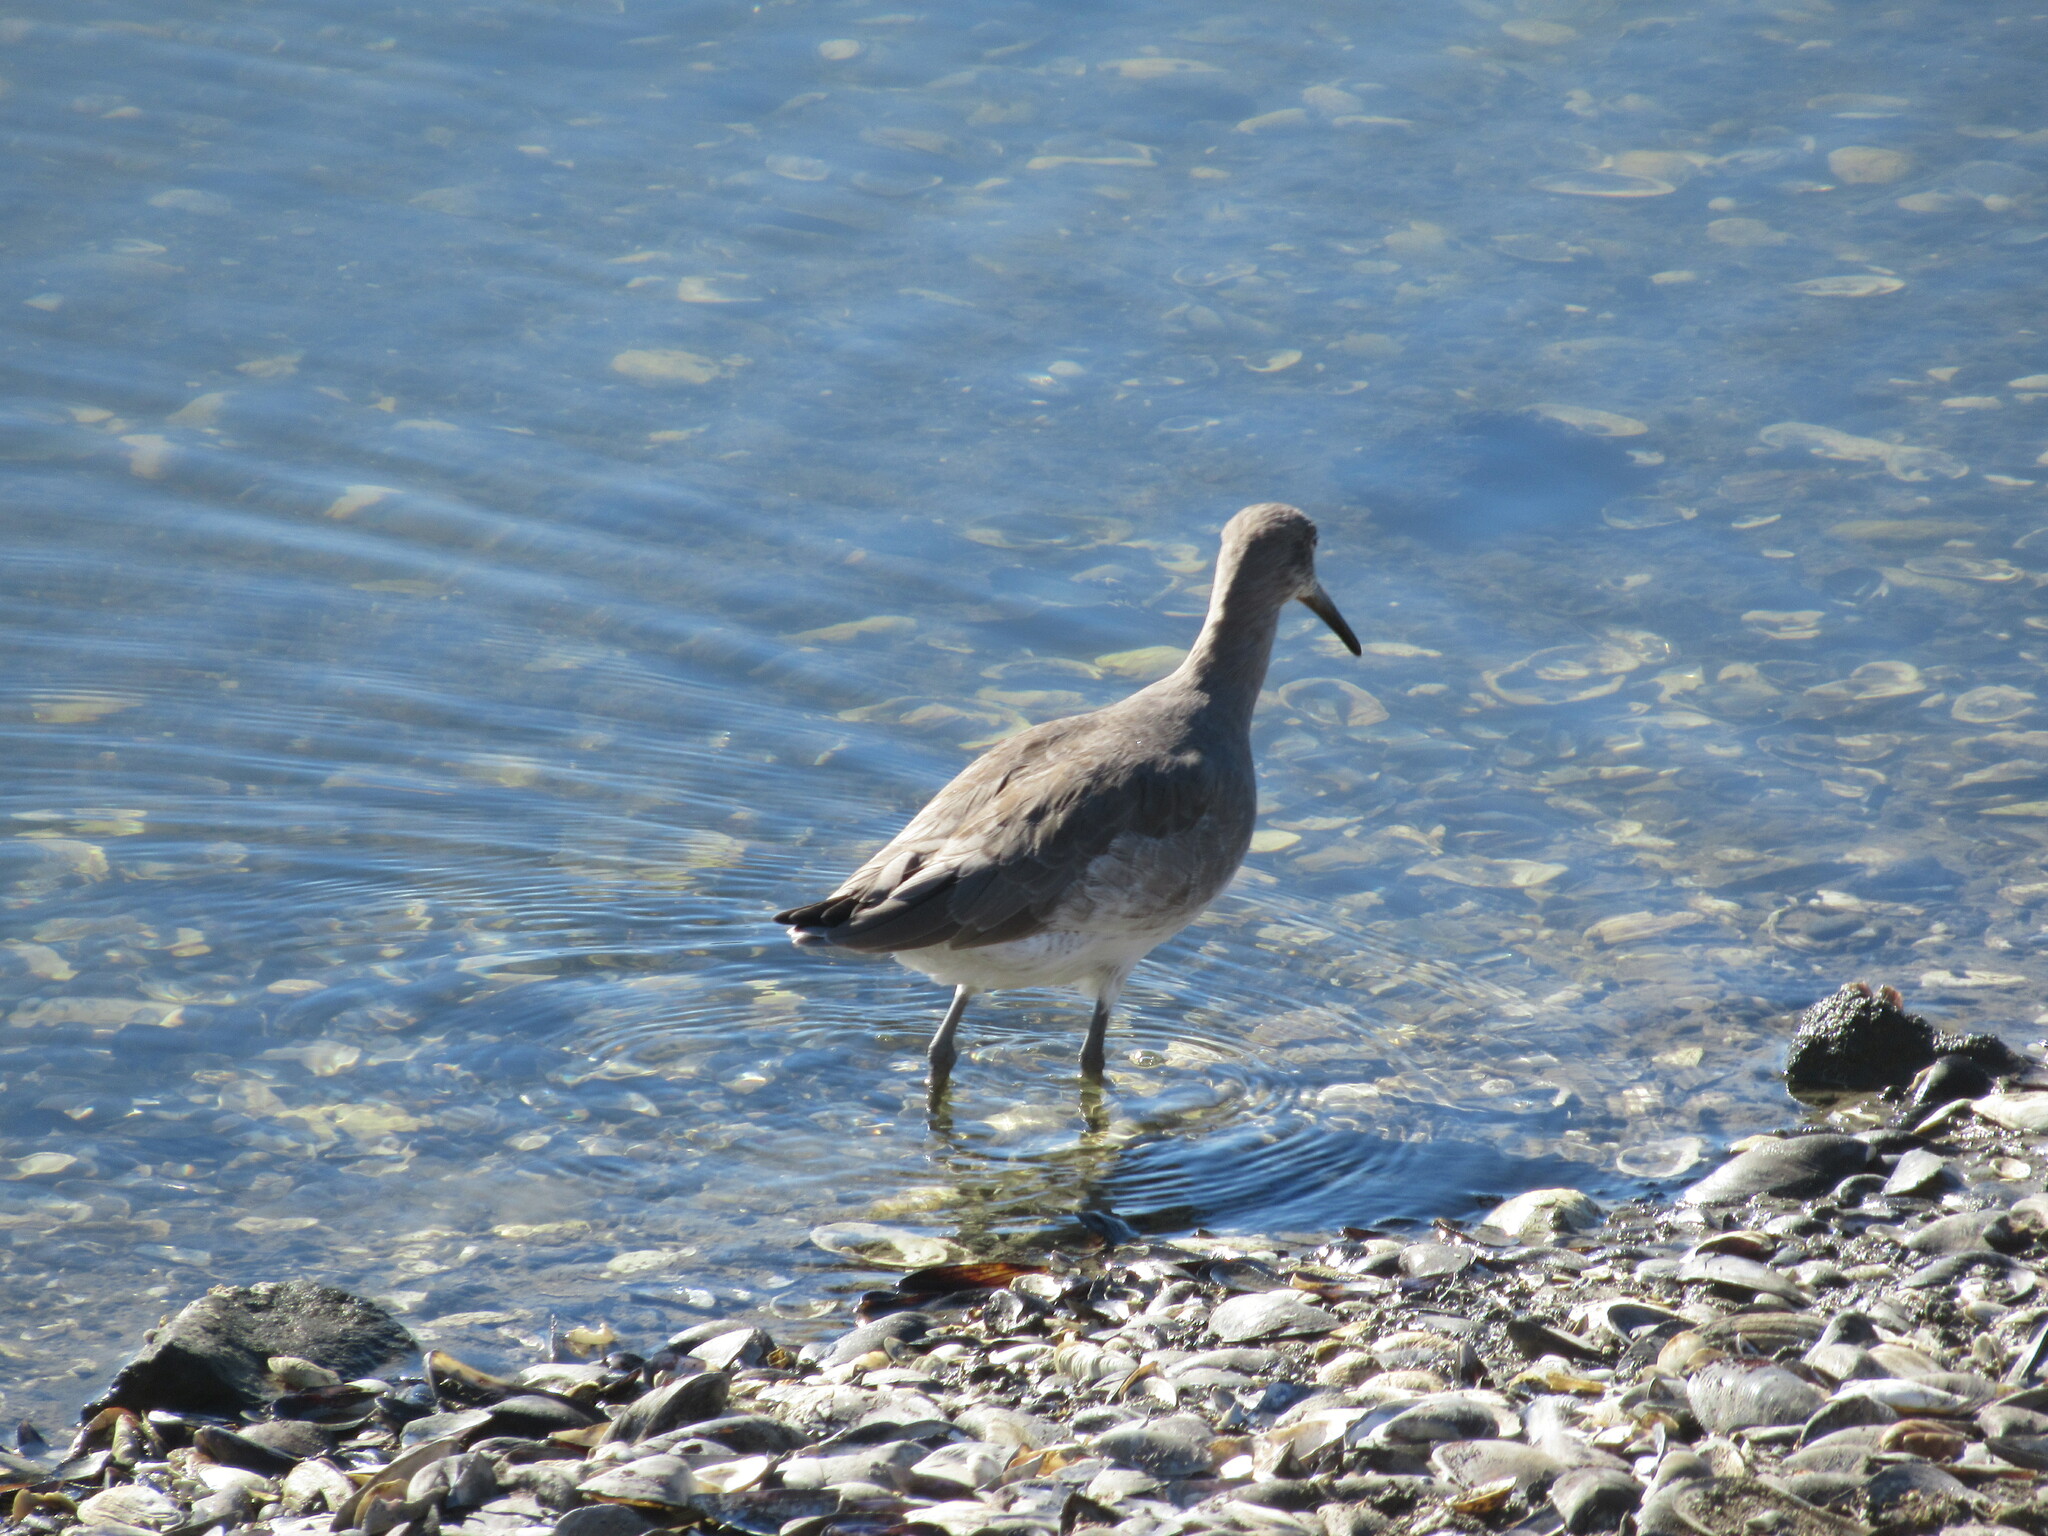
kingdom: Animalia
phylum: Chordata
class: Aves
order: Charadriiformes
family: Scolopacidae
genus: Tringa
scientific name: Tringa semipalmata
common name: Willet
